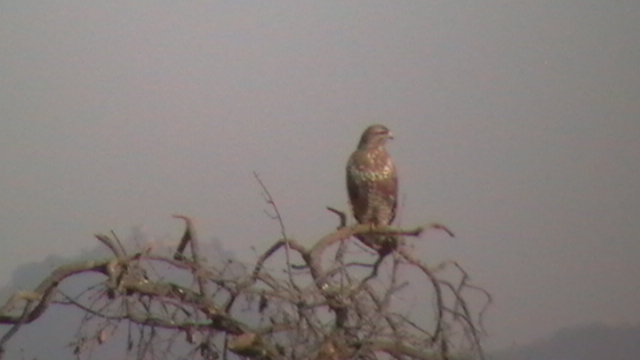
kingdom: Animalia
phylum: Chordata
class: Aves
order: Accipitriformes
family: Accipitridae
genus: Buteo
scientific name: Buteo buteo
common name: Common buzzard
